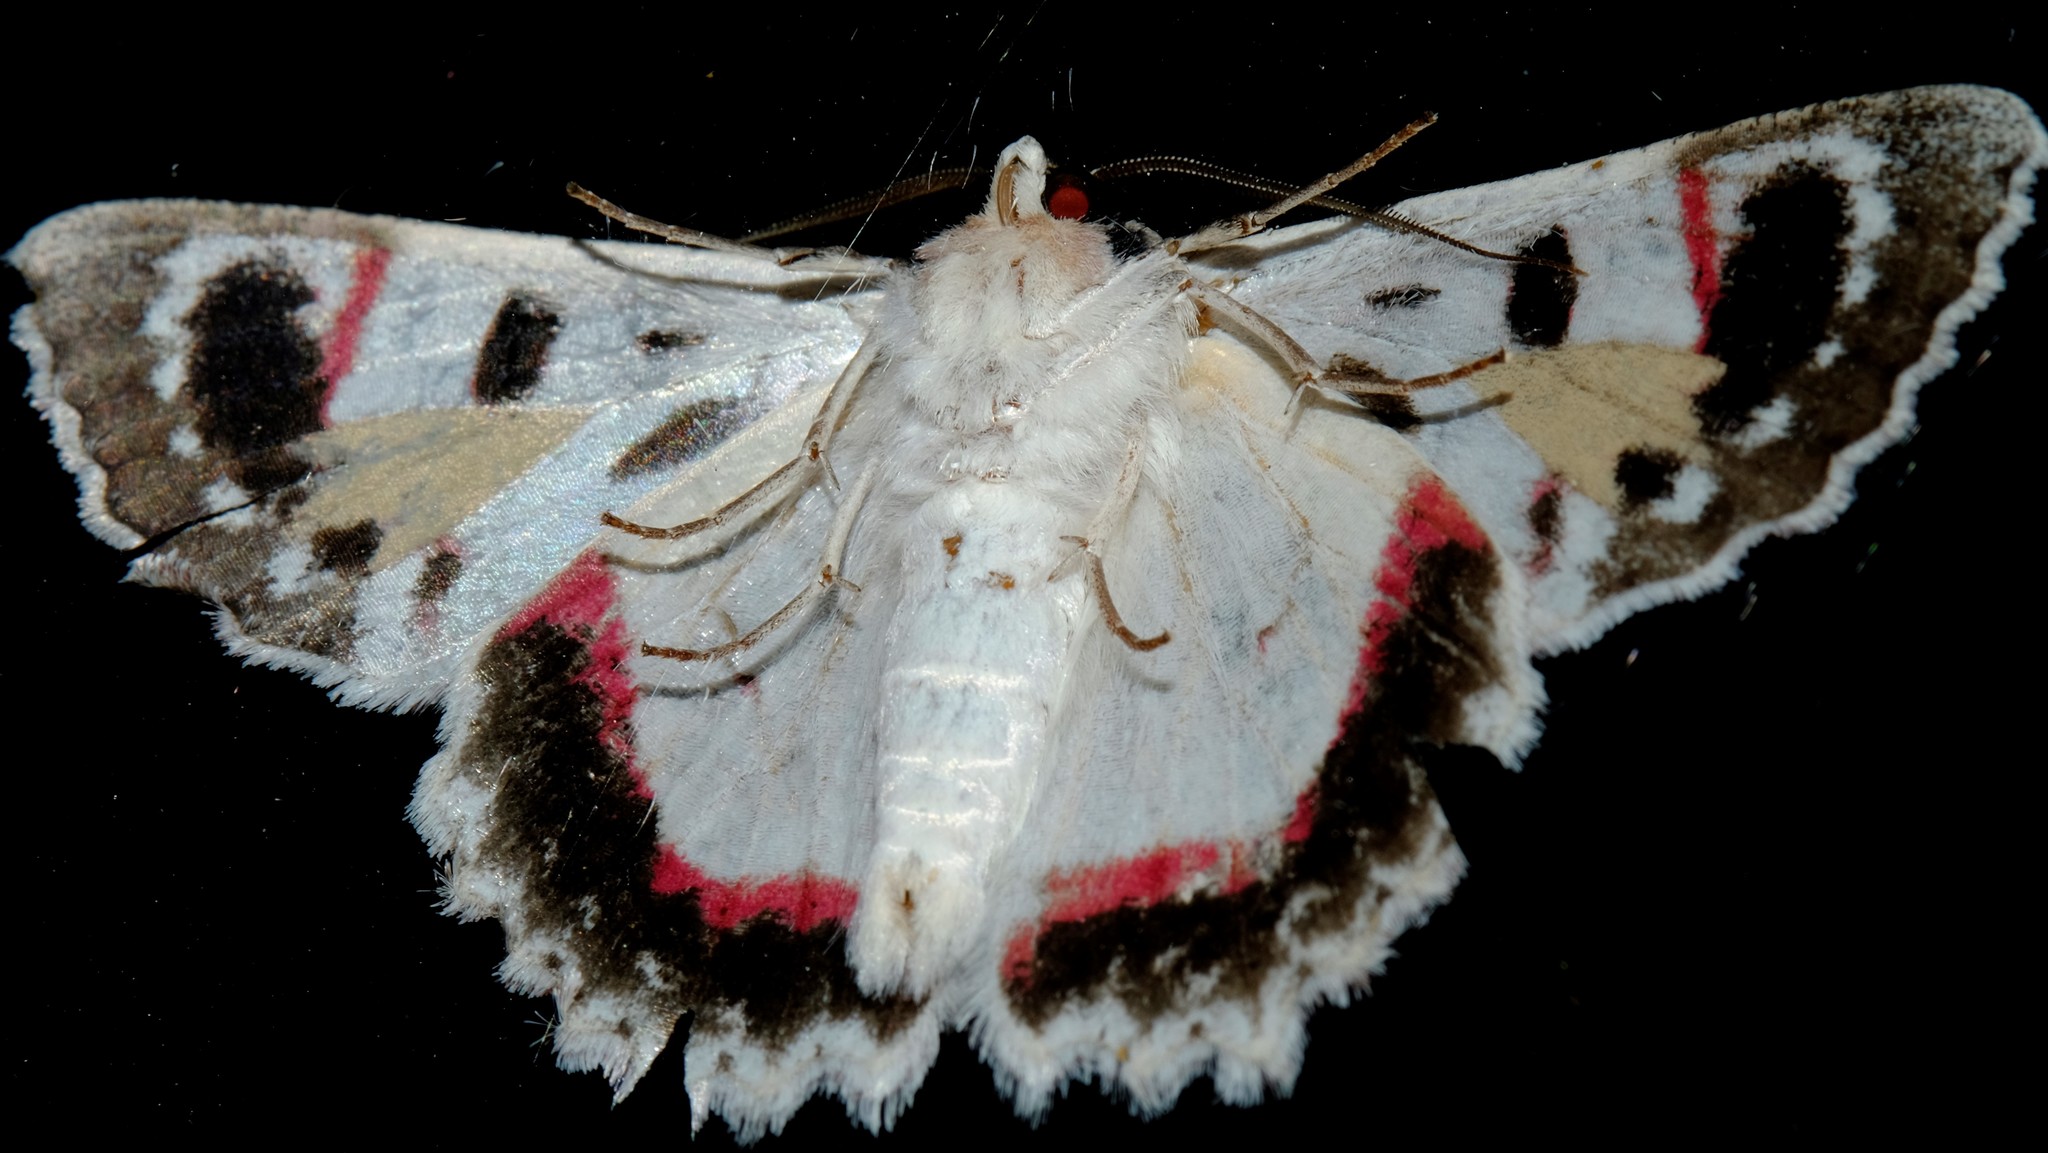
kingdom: Animalia
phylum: Arthropoda
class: Insecta
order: Lepidoptera
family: Geometridae
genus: Crypsiphona
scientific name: Crypsiphona ocultaria
